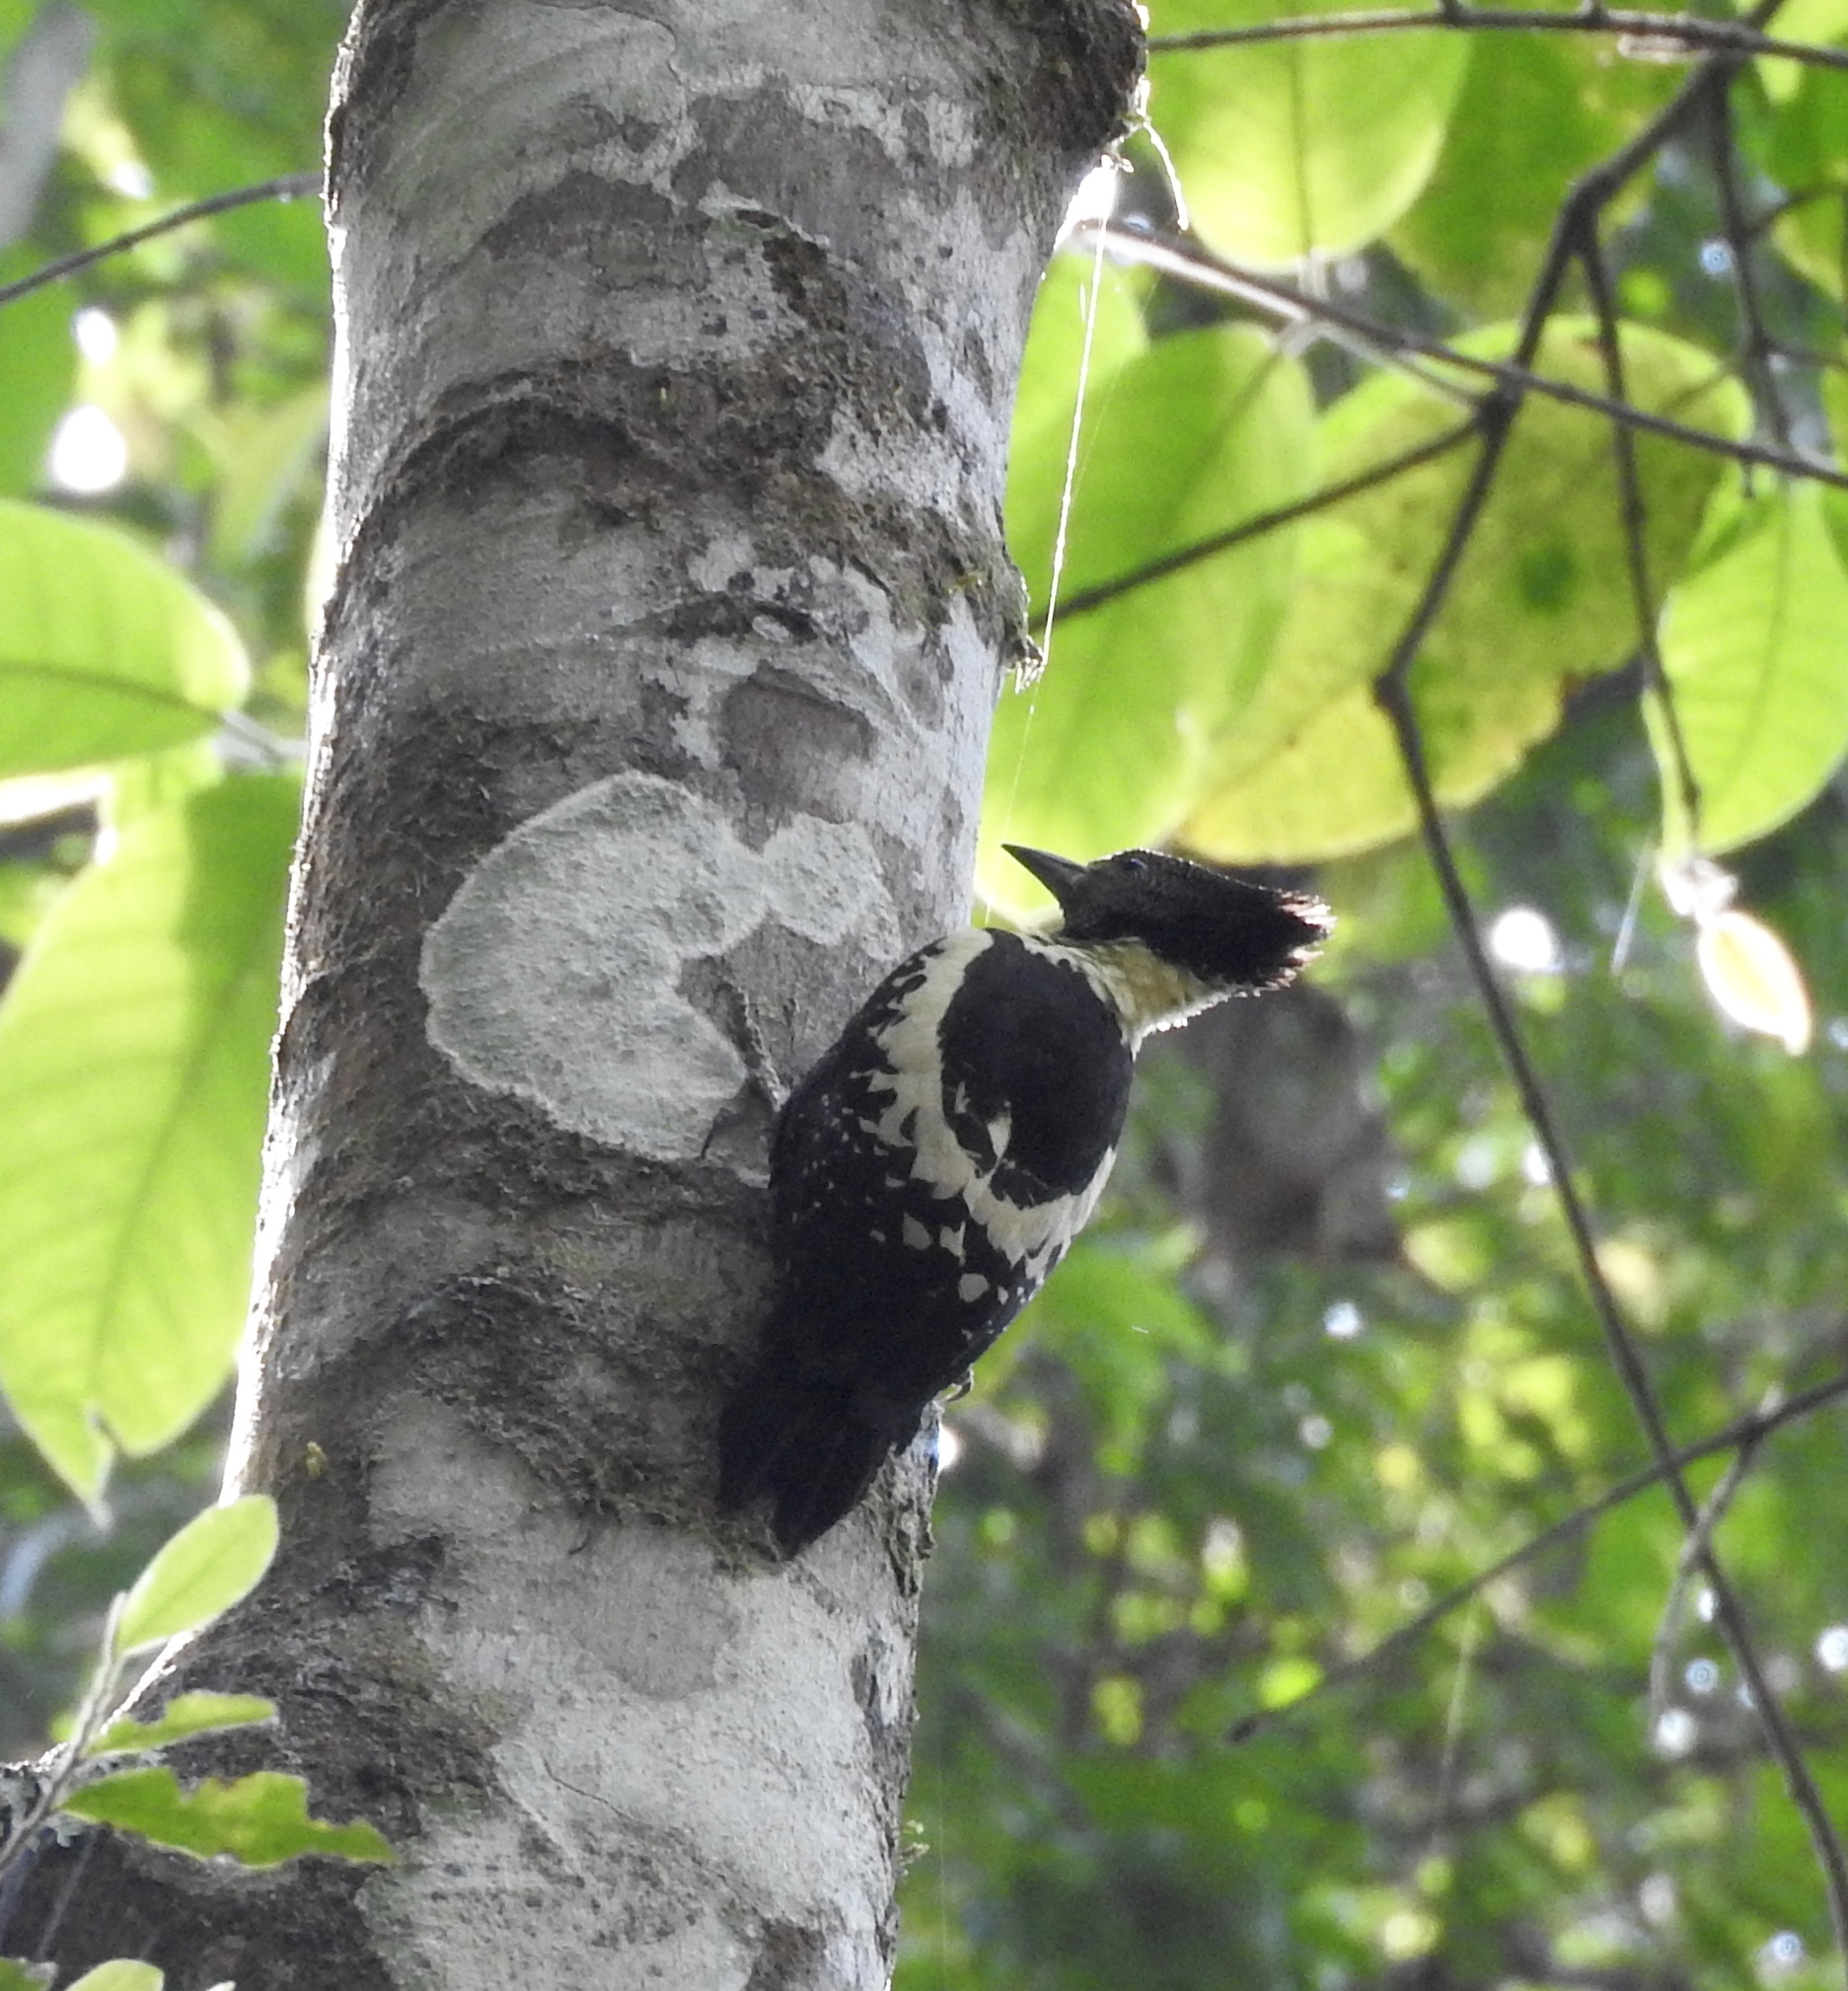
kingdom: Animalia
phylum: Chordata
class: Aves
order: Piciformes
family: Picidae
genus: Meiglyptes
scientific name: Meiglyptes jugularis
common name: Black-and-buff woodpecker
